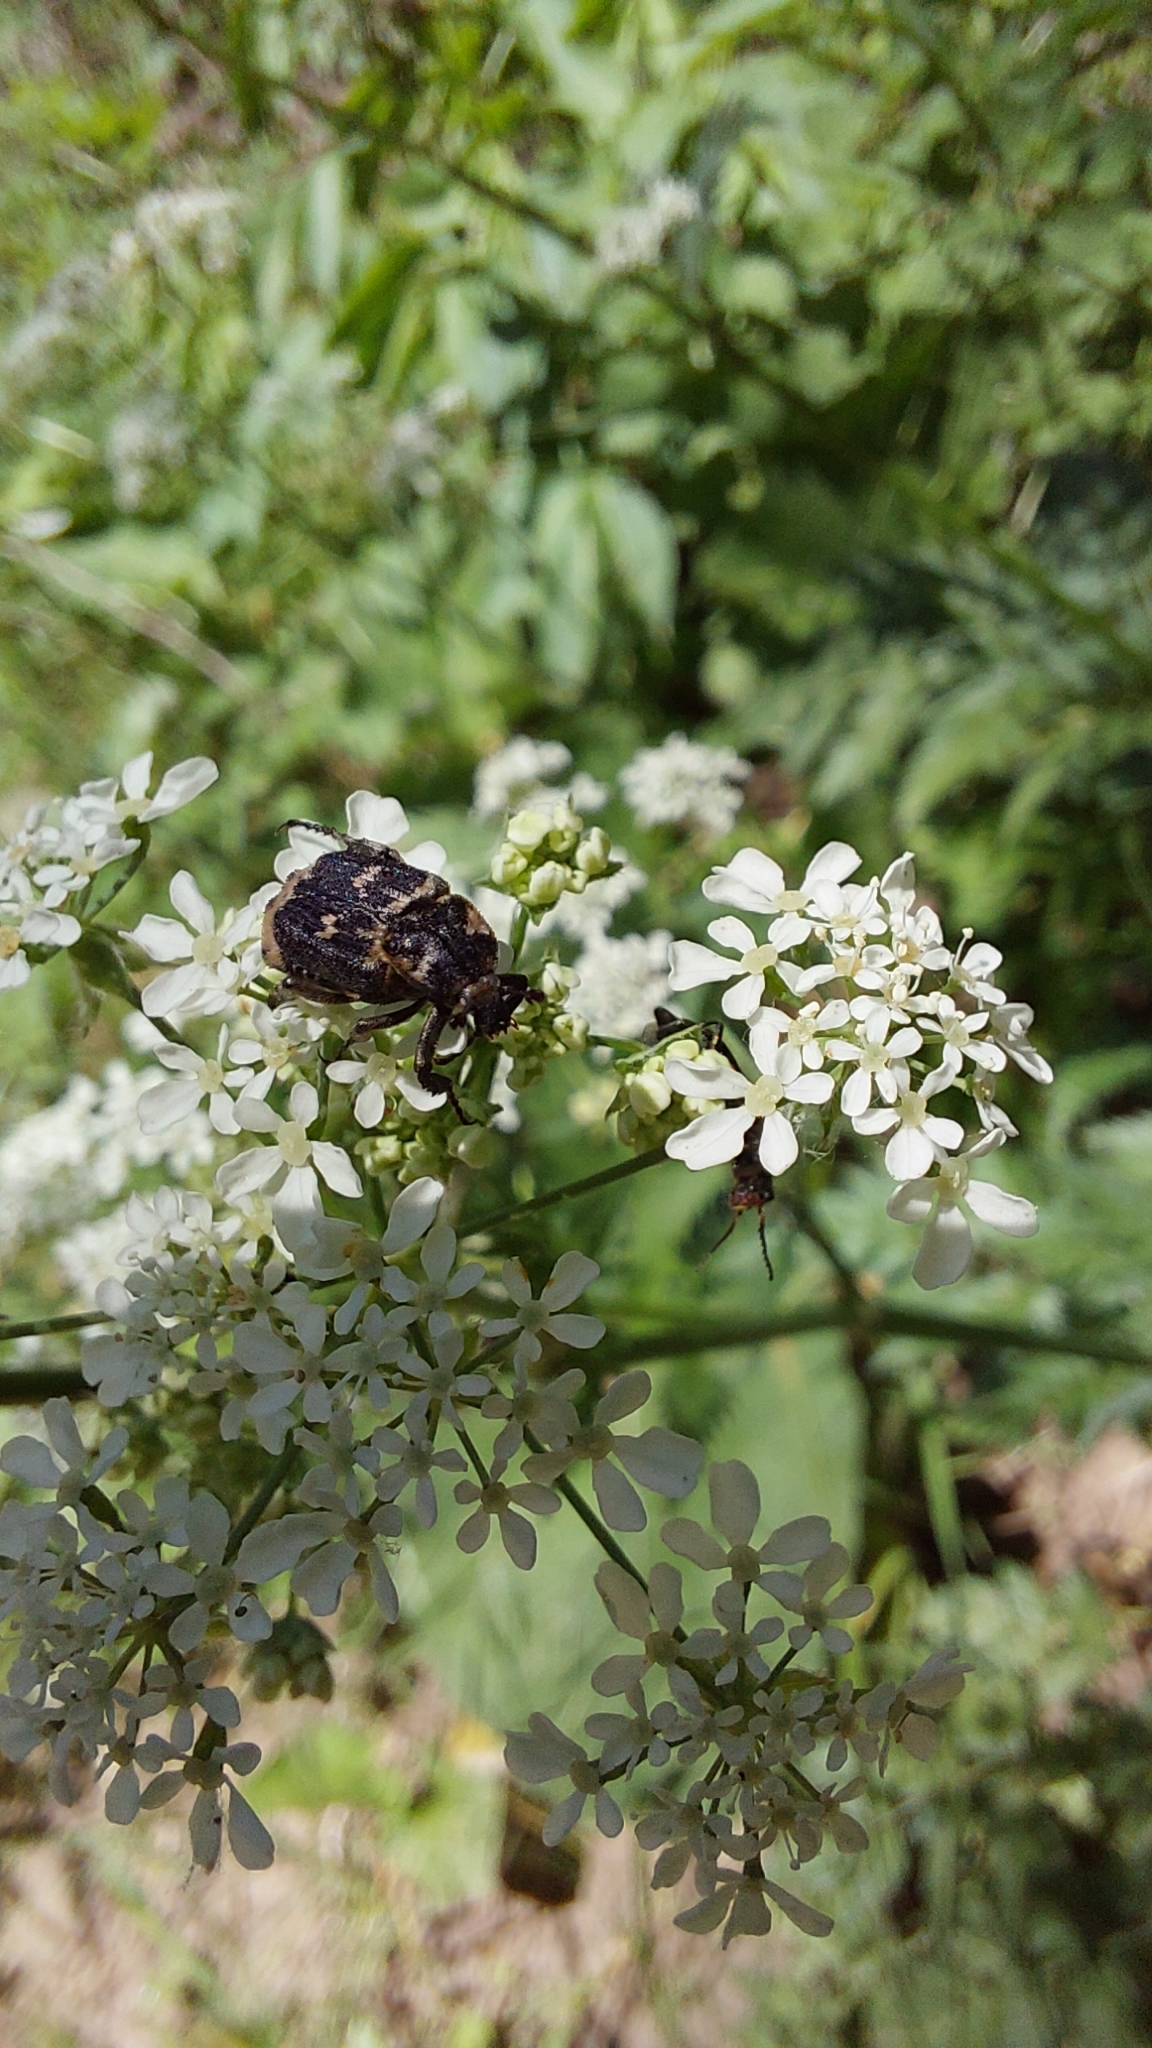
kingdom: Animalia
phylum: Arthropoda
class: Insecta
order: Coleoptera
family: Scarabaeidae
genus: Valgus
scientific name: Valgus hemipterus
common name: Bug flower chafer
